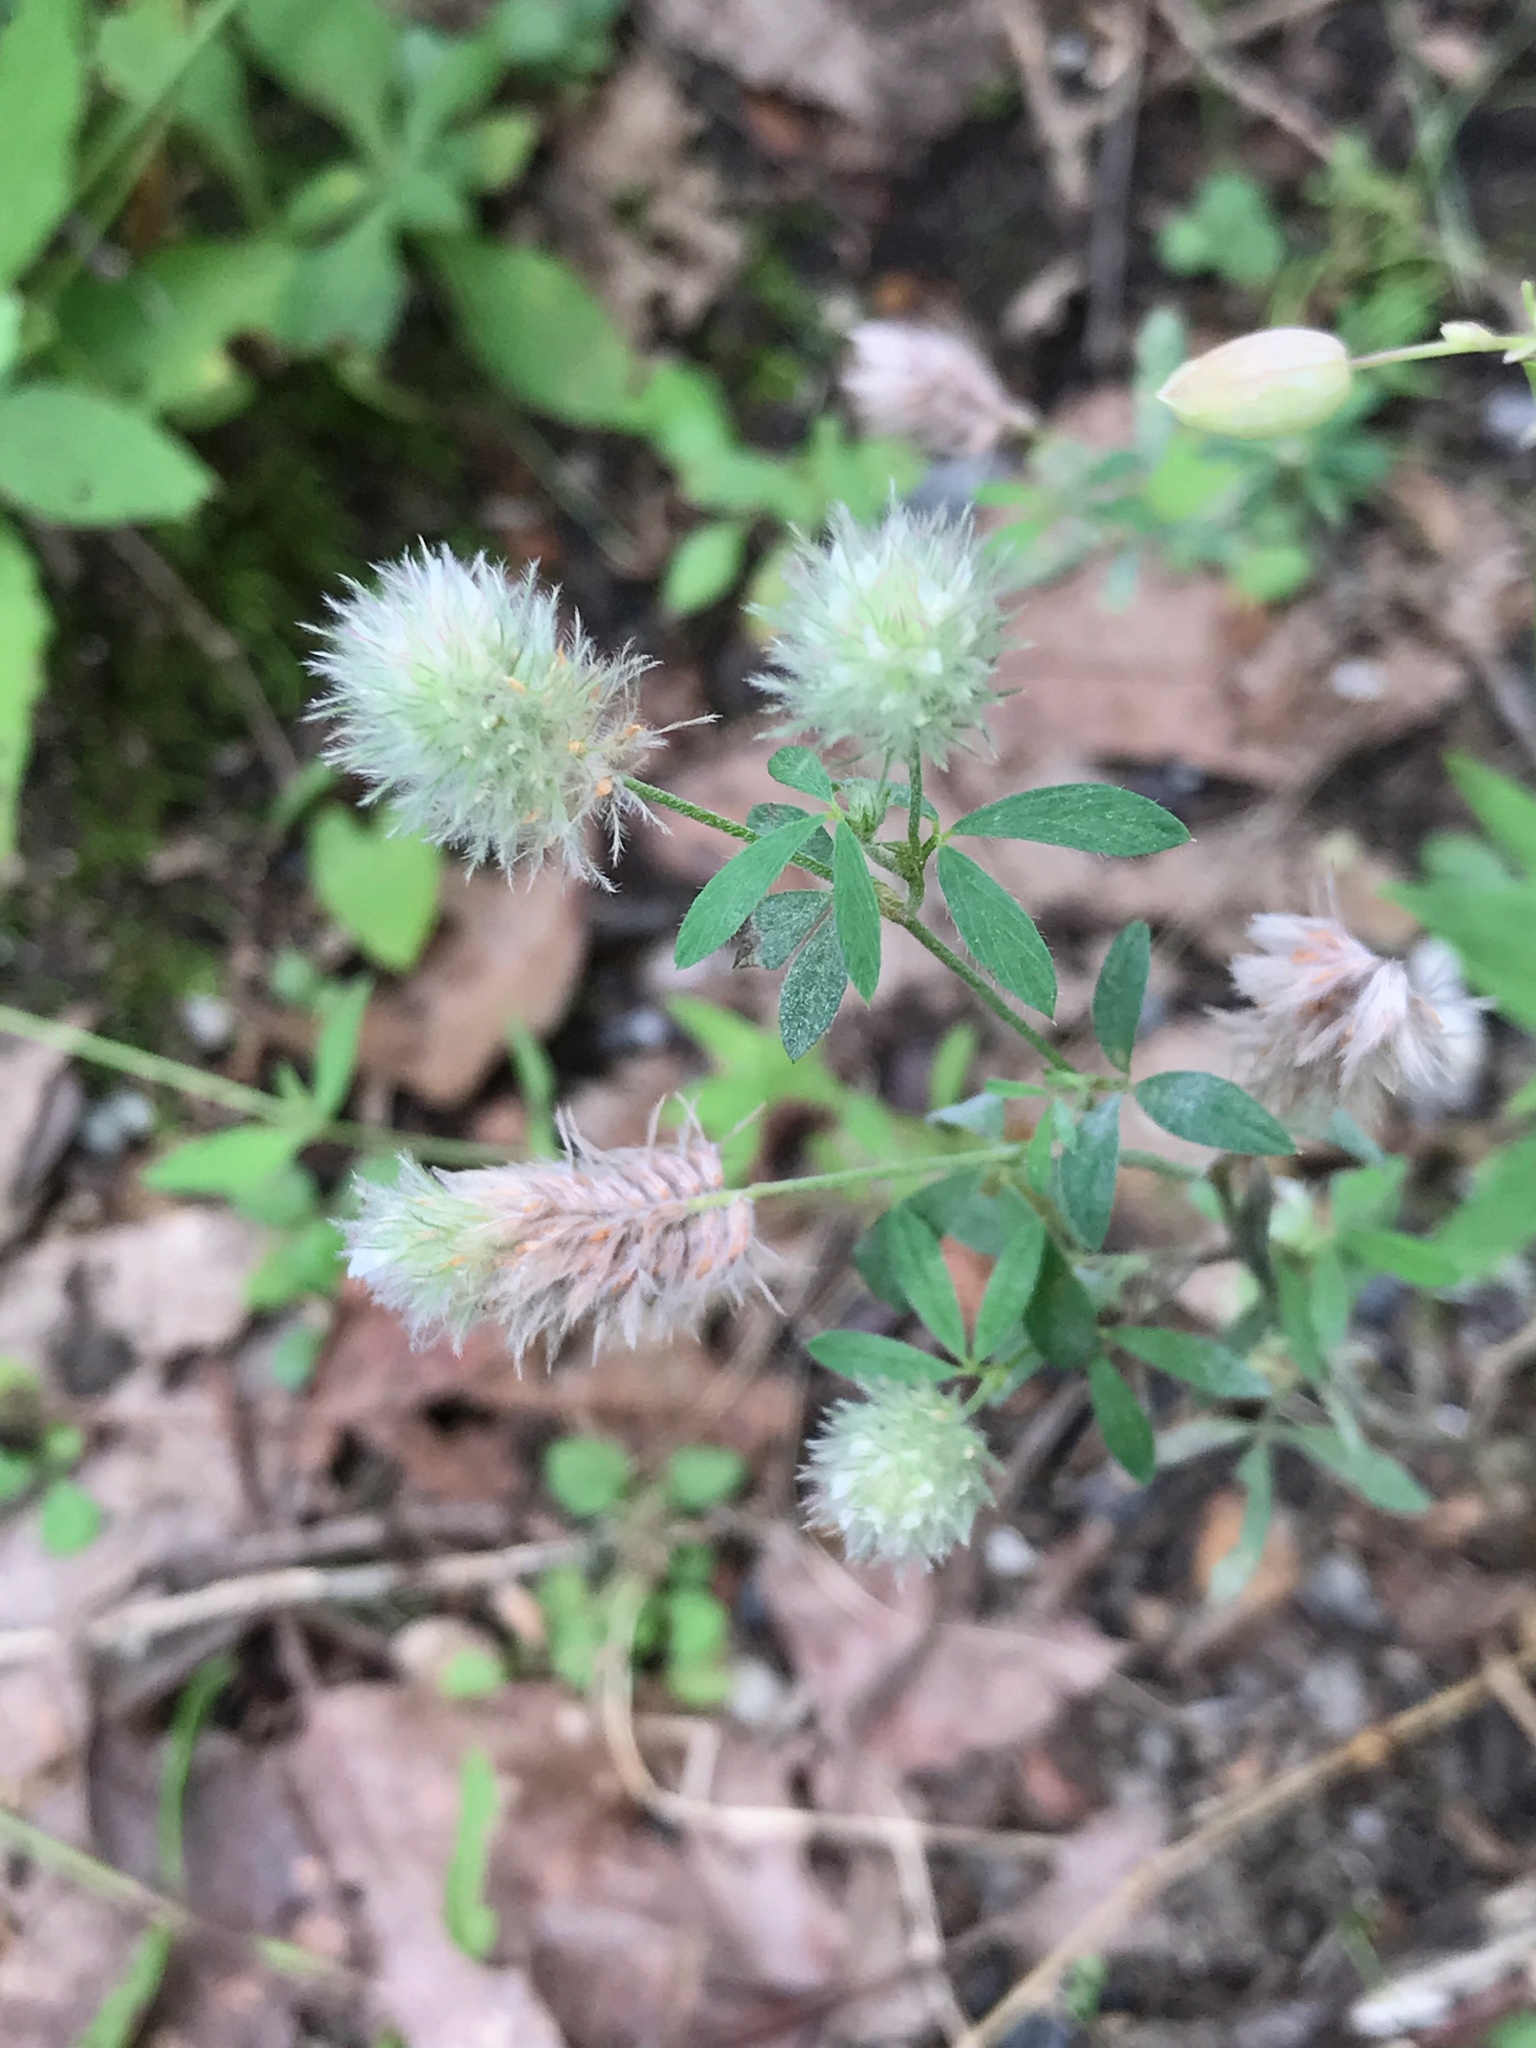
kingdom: Plantae
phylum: Tracheophyta
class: Magnoliopsida
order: Fabales
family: Fabaceae
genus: Trifolium
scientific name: Trifolium arvense
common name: Hare's-foot clover
